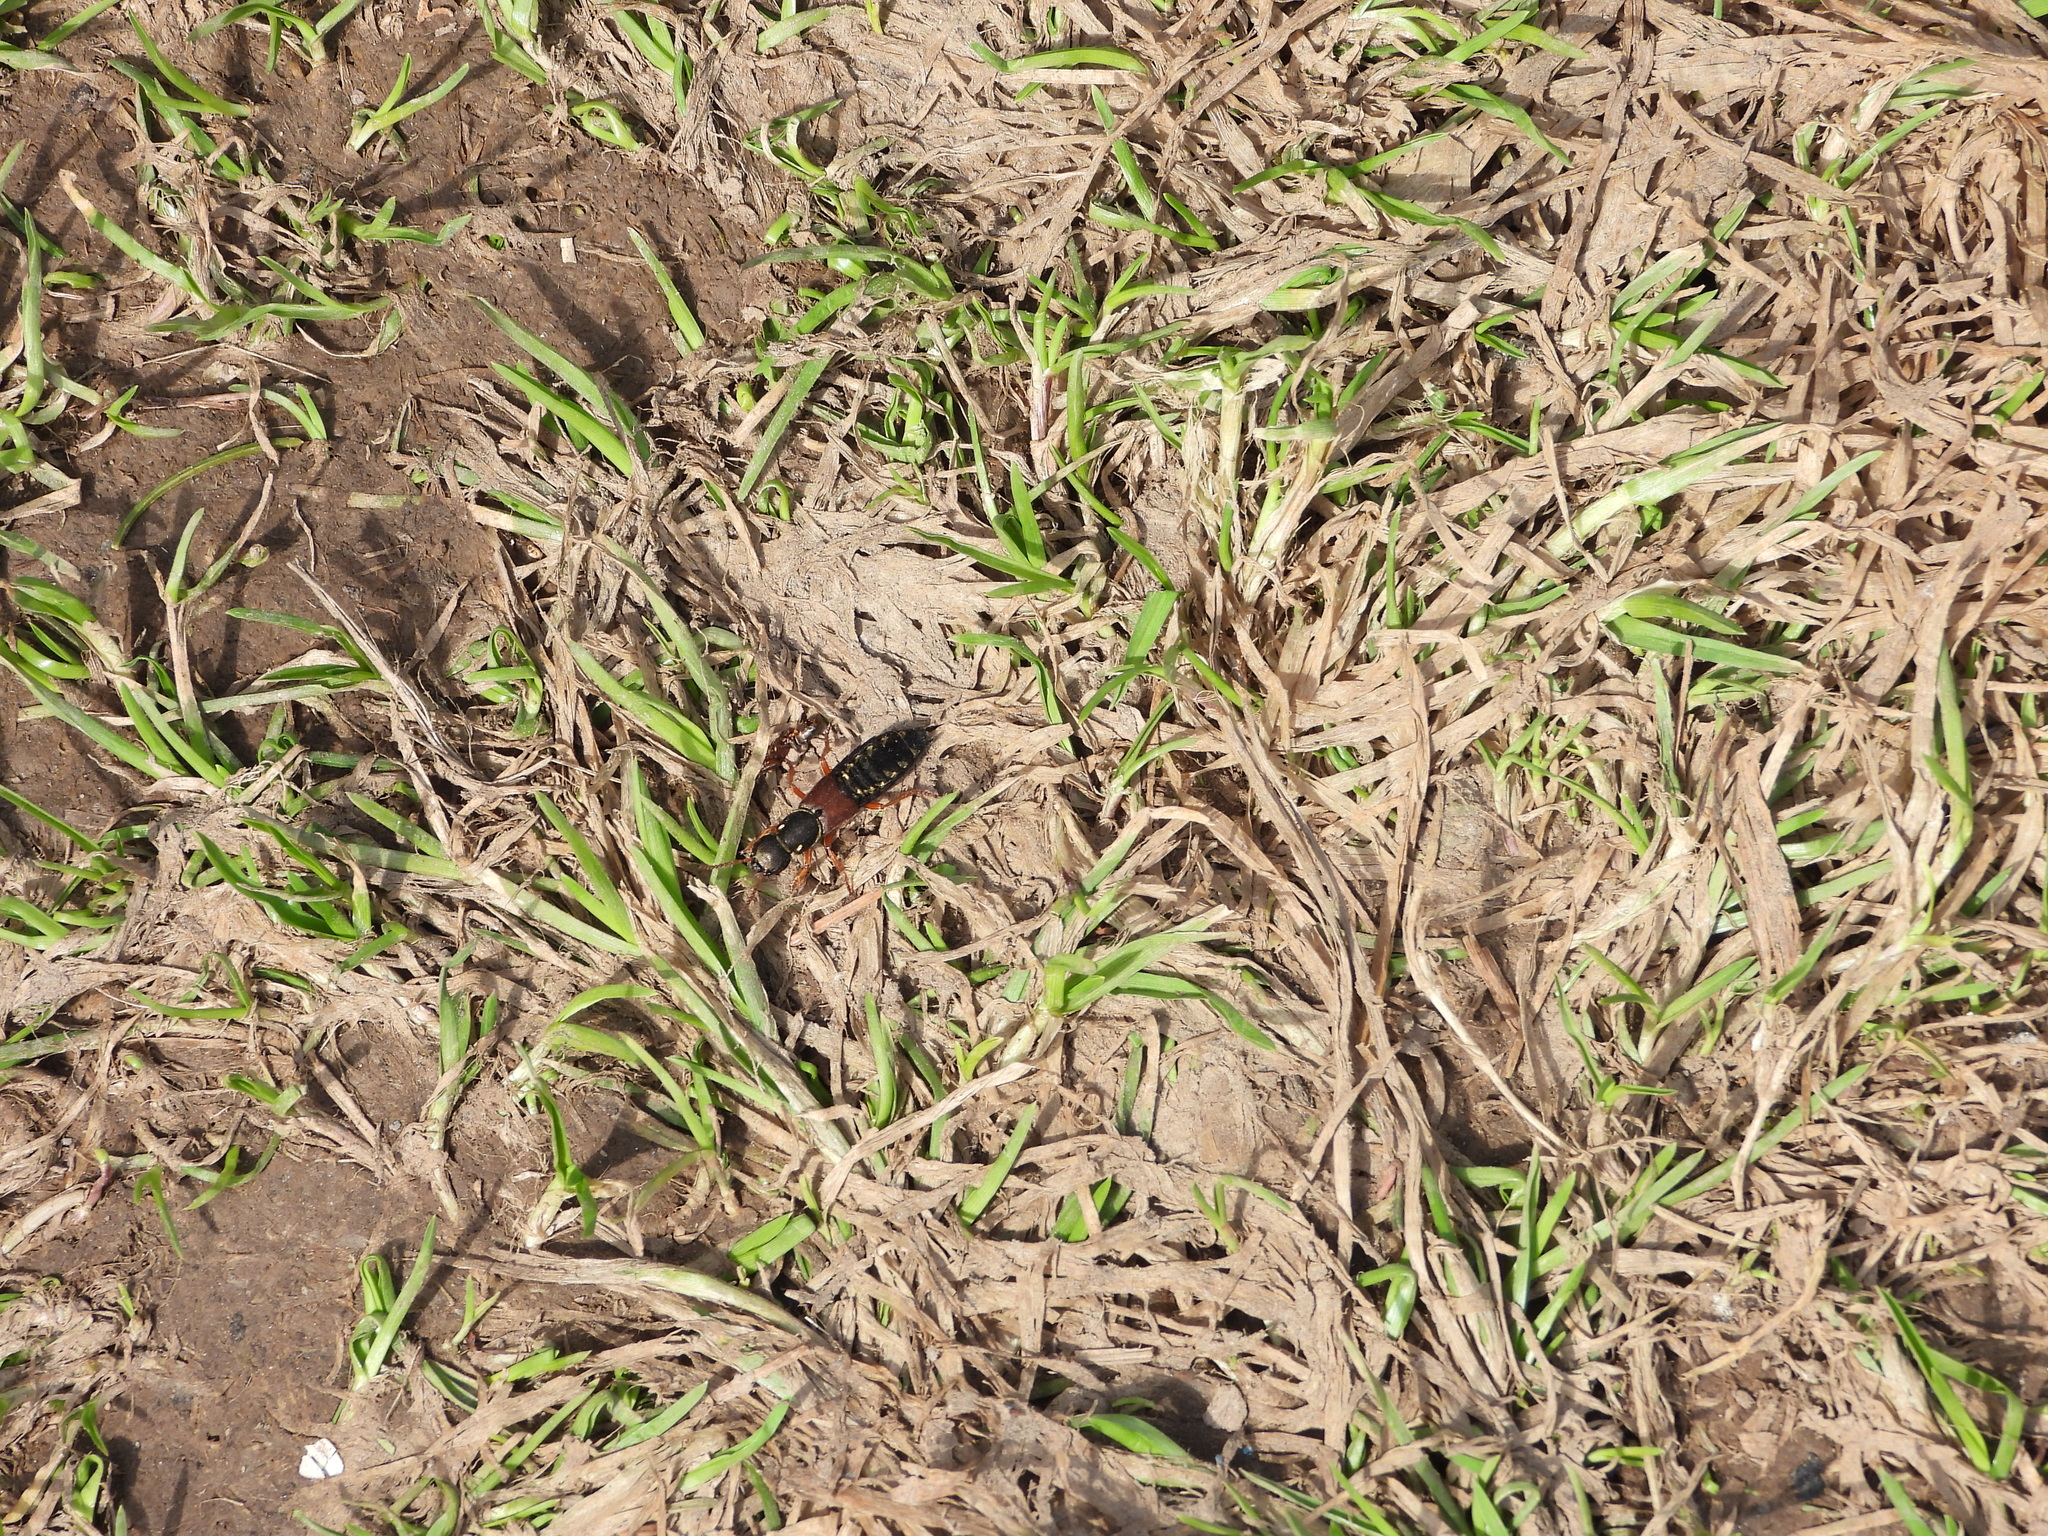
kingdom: Animalia
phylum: Arthropoda
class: Insecta
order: Coleoptera
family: Staphylinidae
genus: Staphylinus
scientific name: Staphylinus caesareus
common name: Staph beetle
